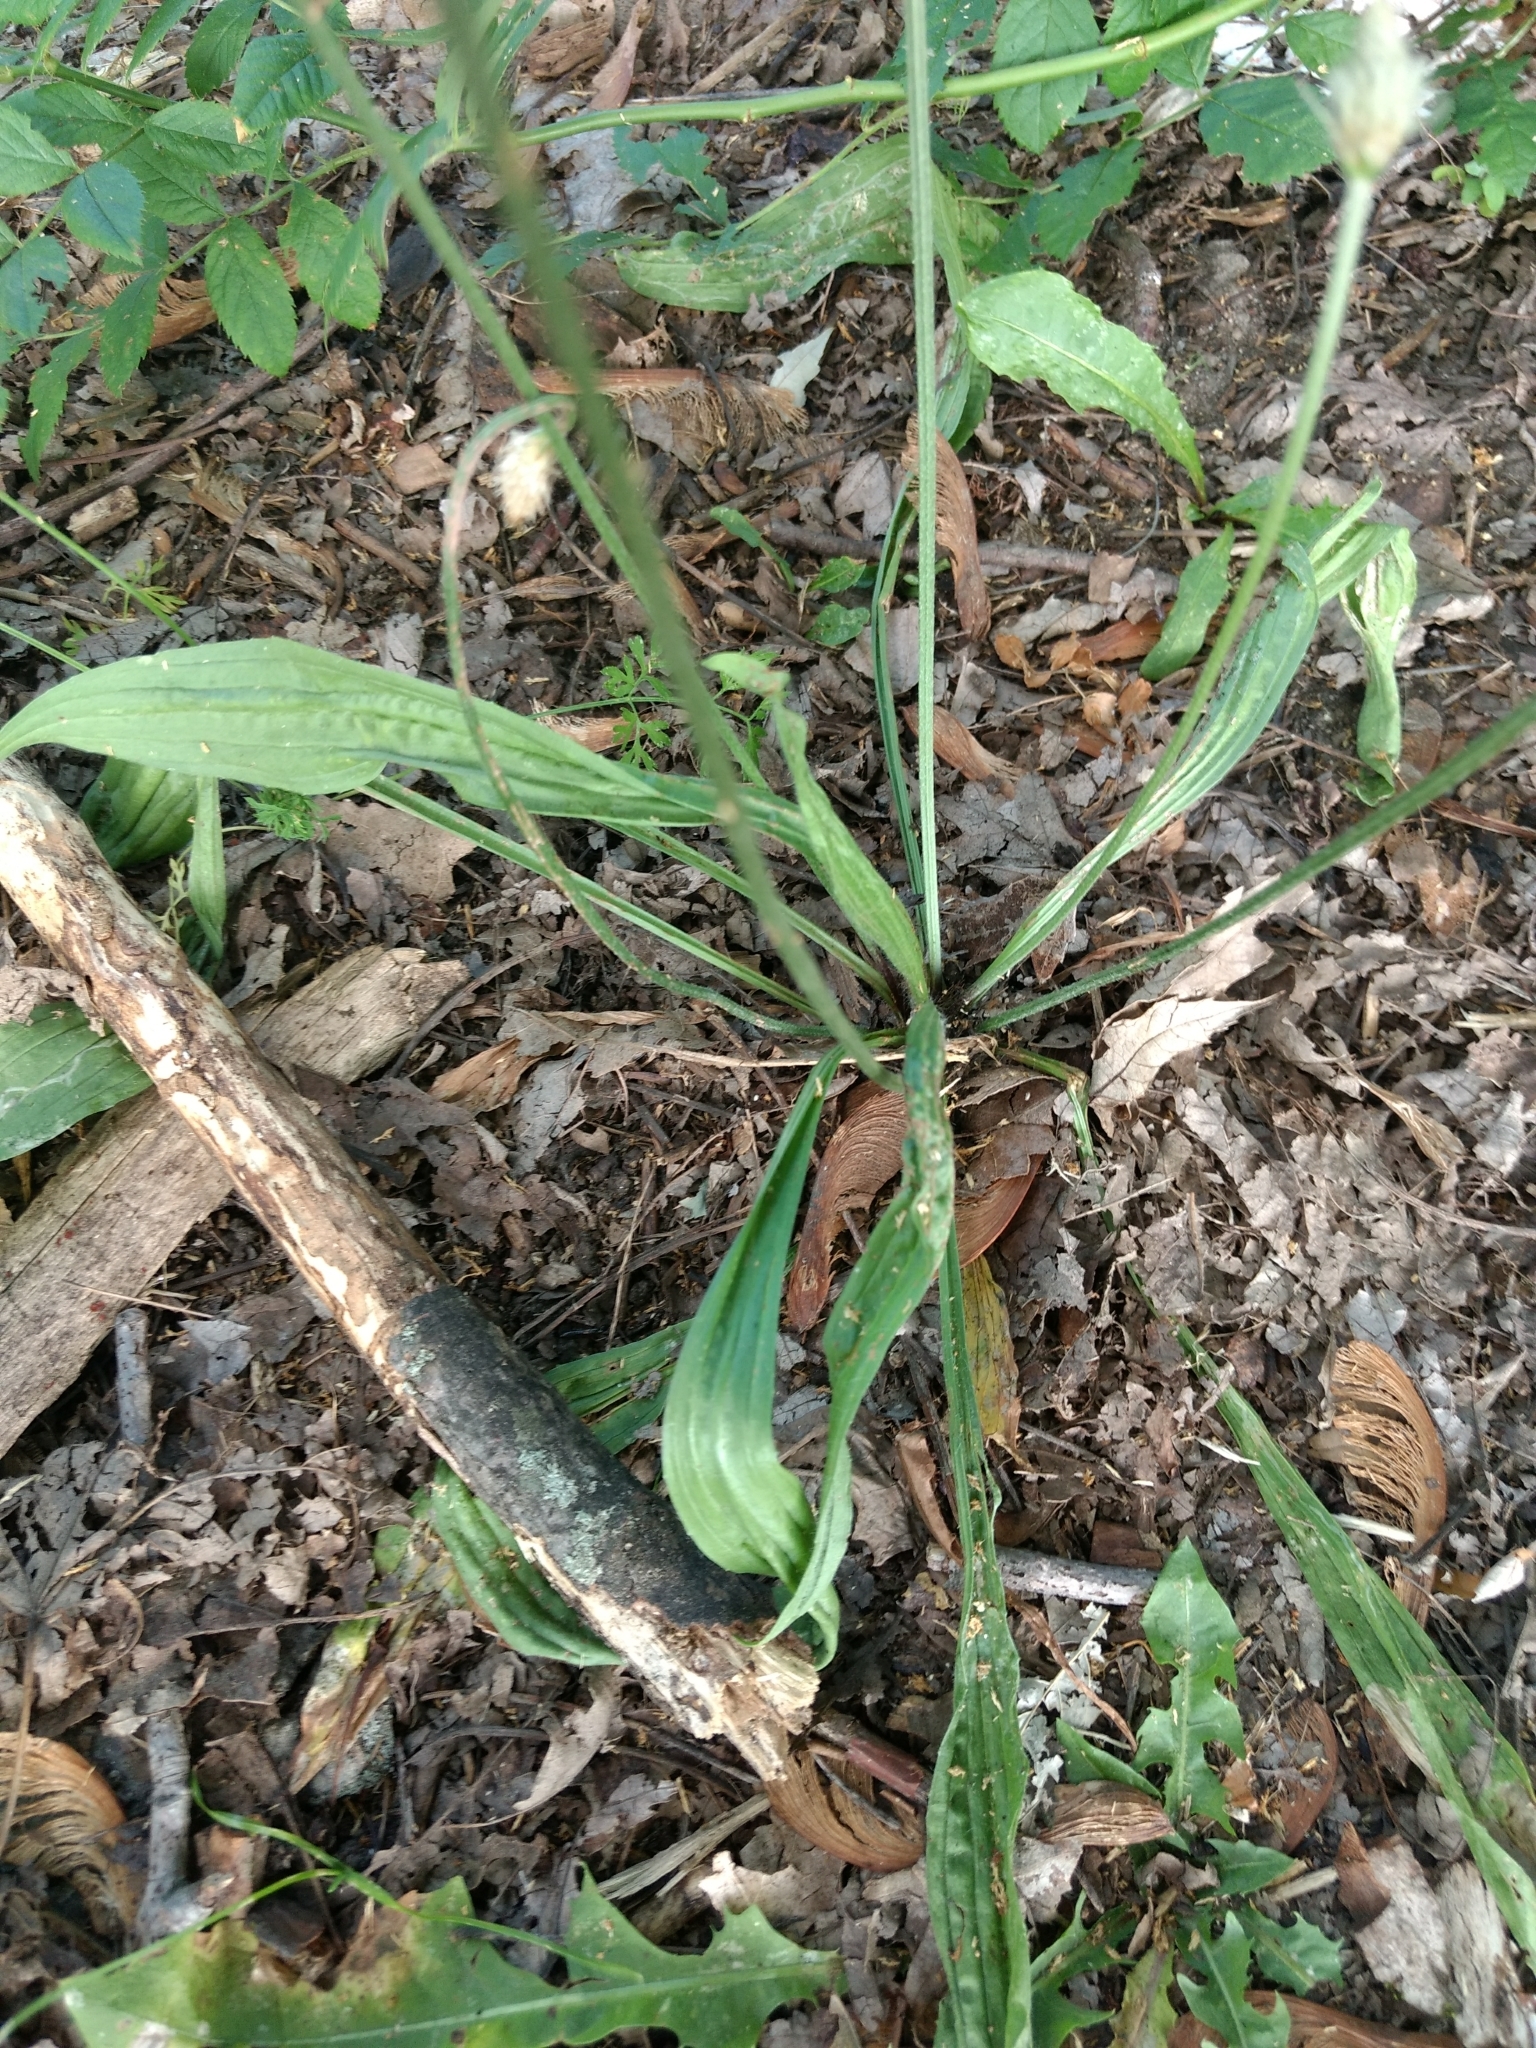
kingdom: Plantae
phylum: Tracheophyta
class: Magnoliopsida
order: Lamiales
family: Plantaginaceae
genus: Plantago
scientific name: Plantago lanceolata
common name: Ribwort plantain
